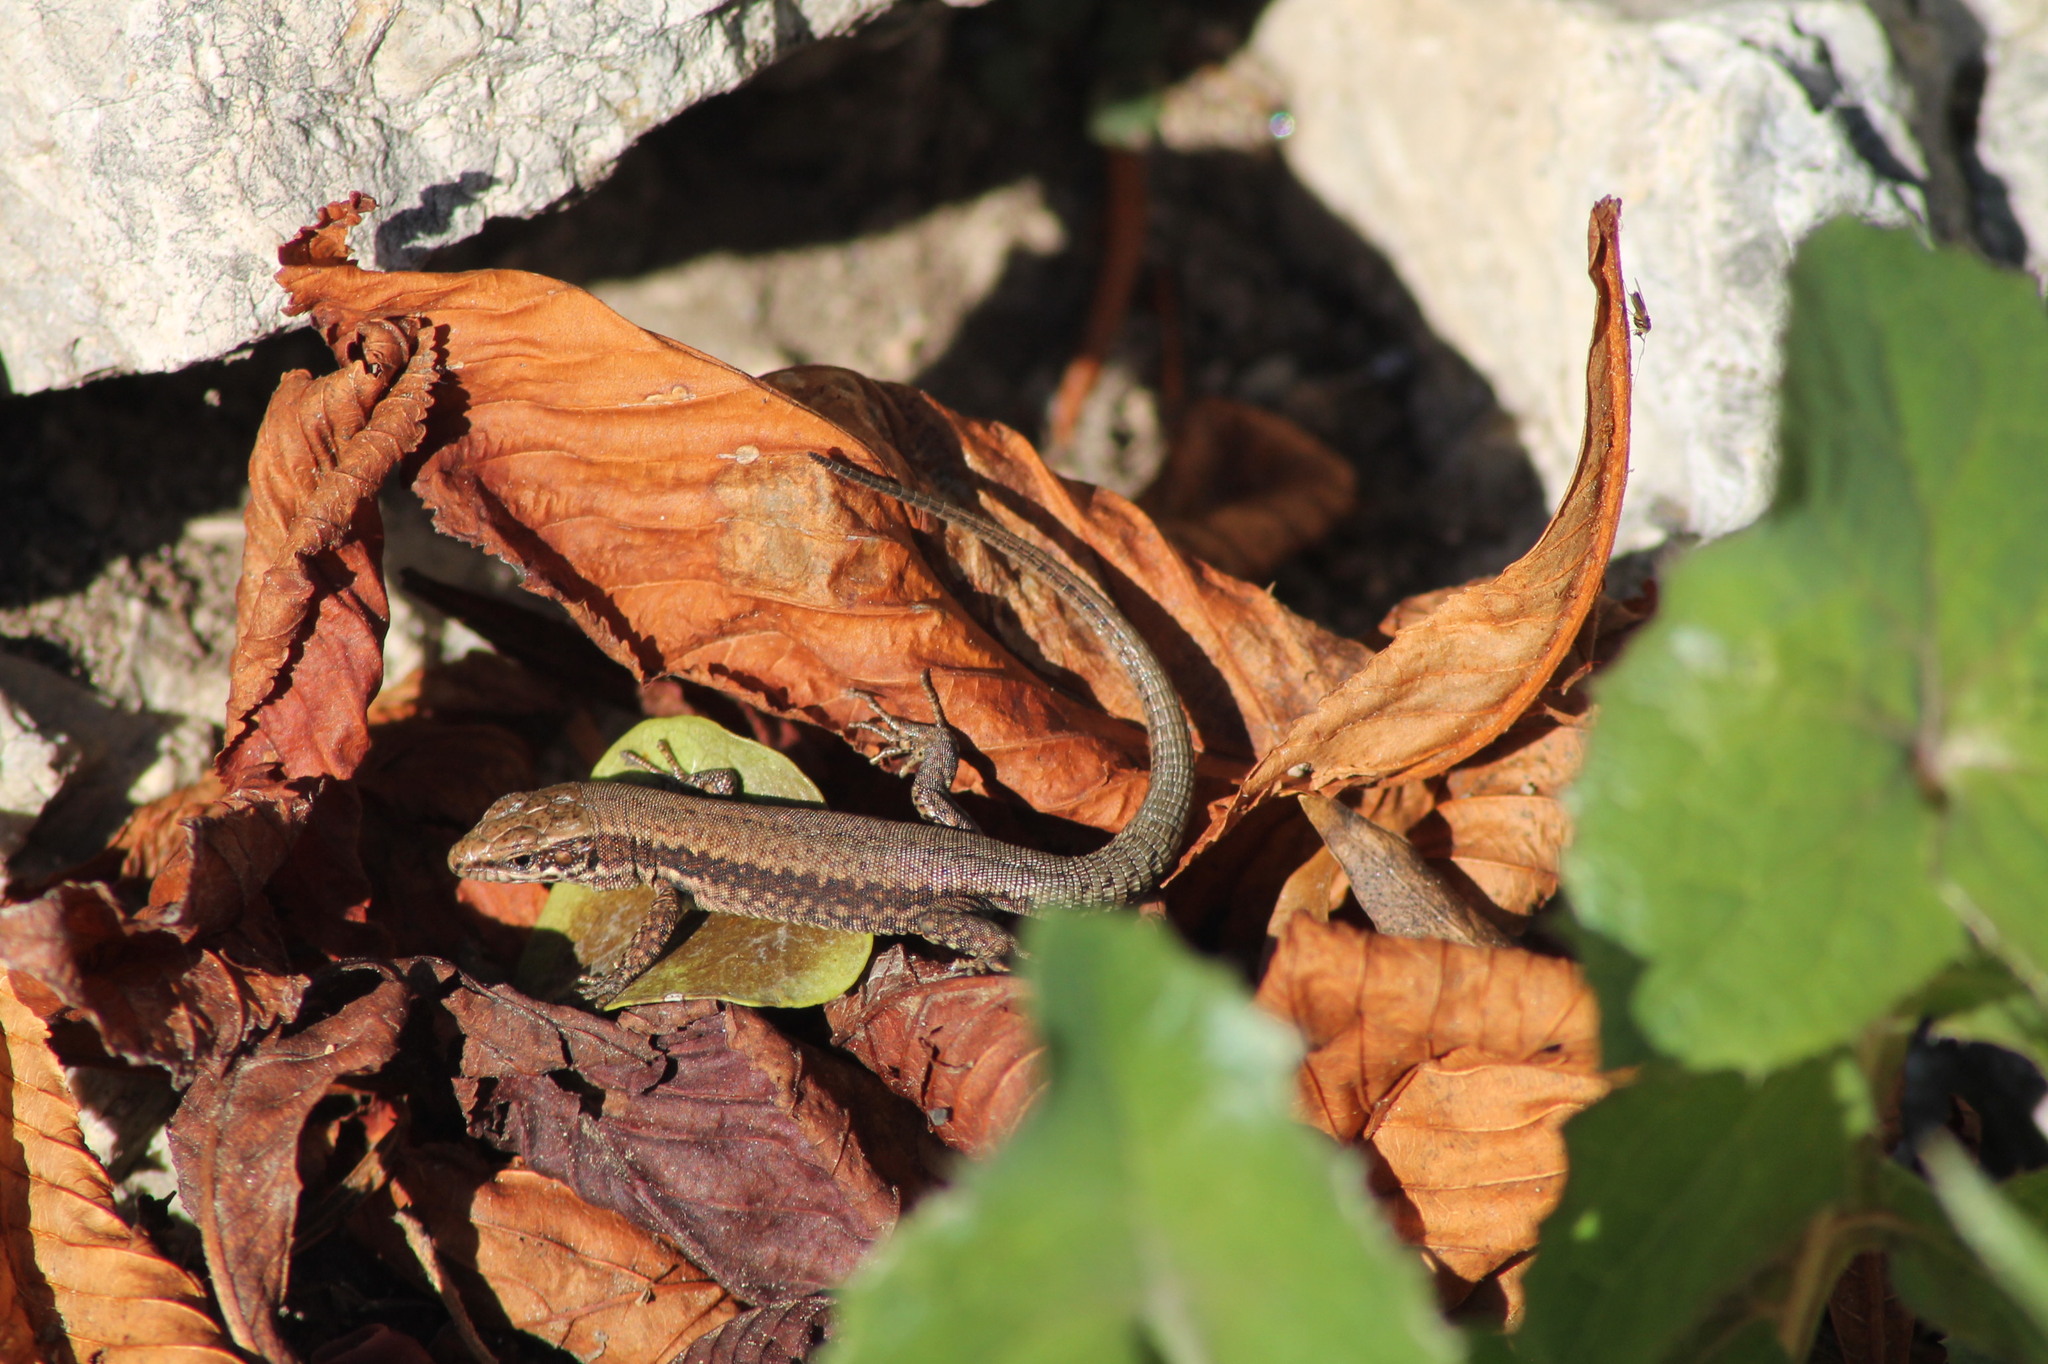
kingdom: Animalia
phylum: Chordata
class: Squamata
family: Lacertidae
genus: Podarcis
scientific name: Podarcis muralis
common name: Common wall lizard
